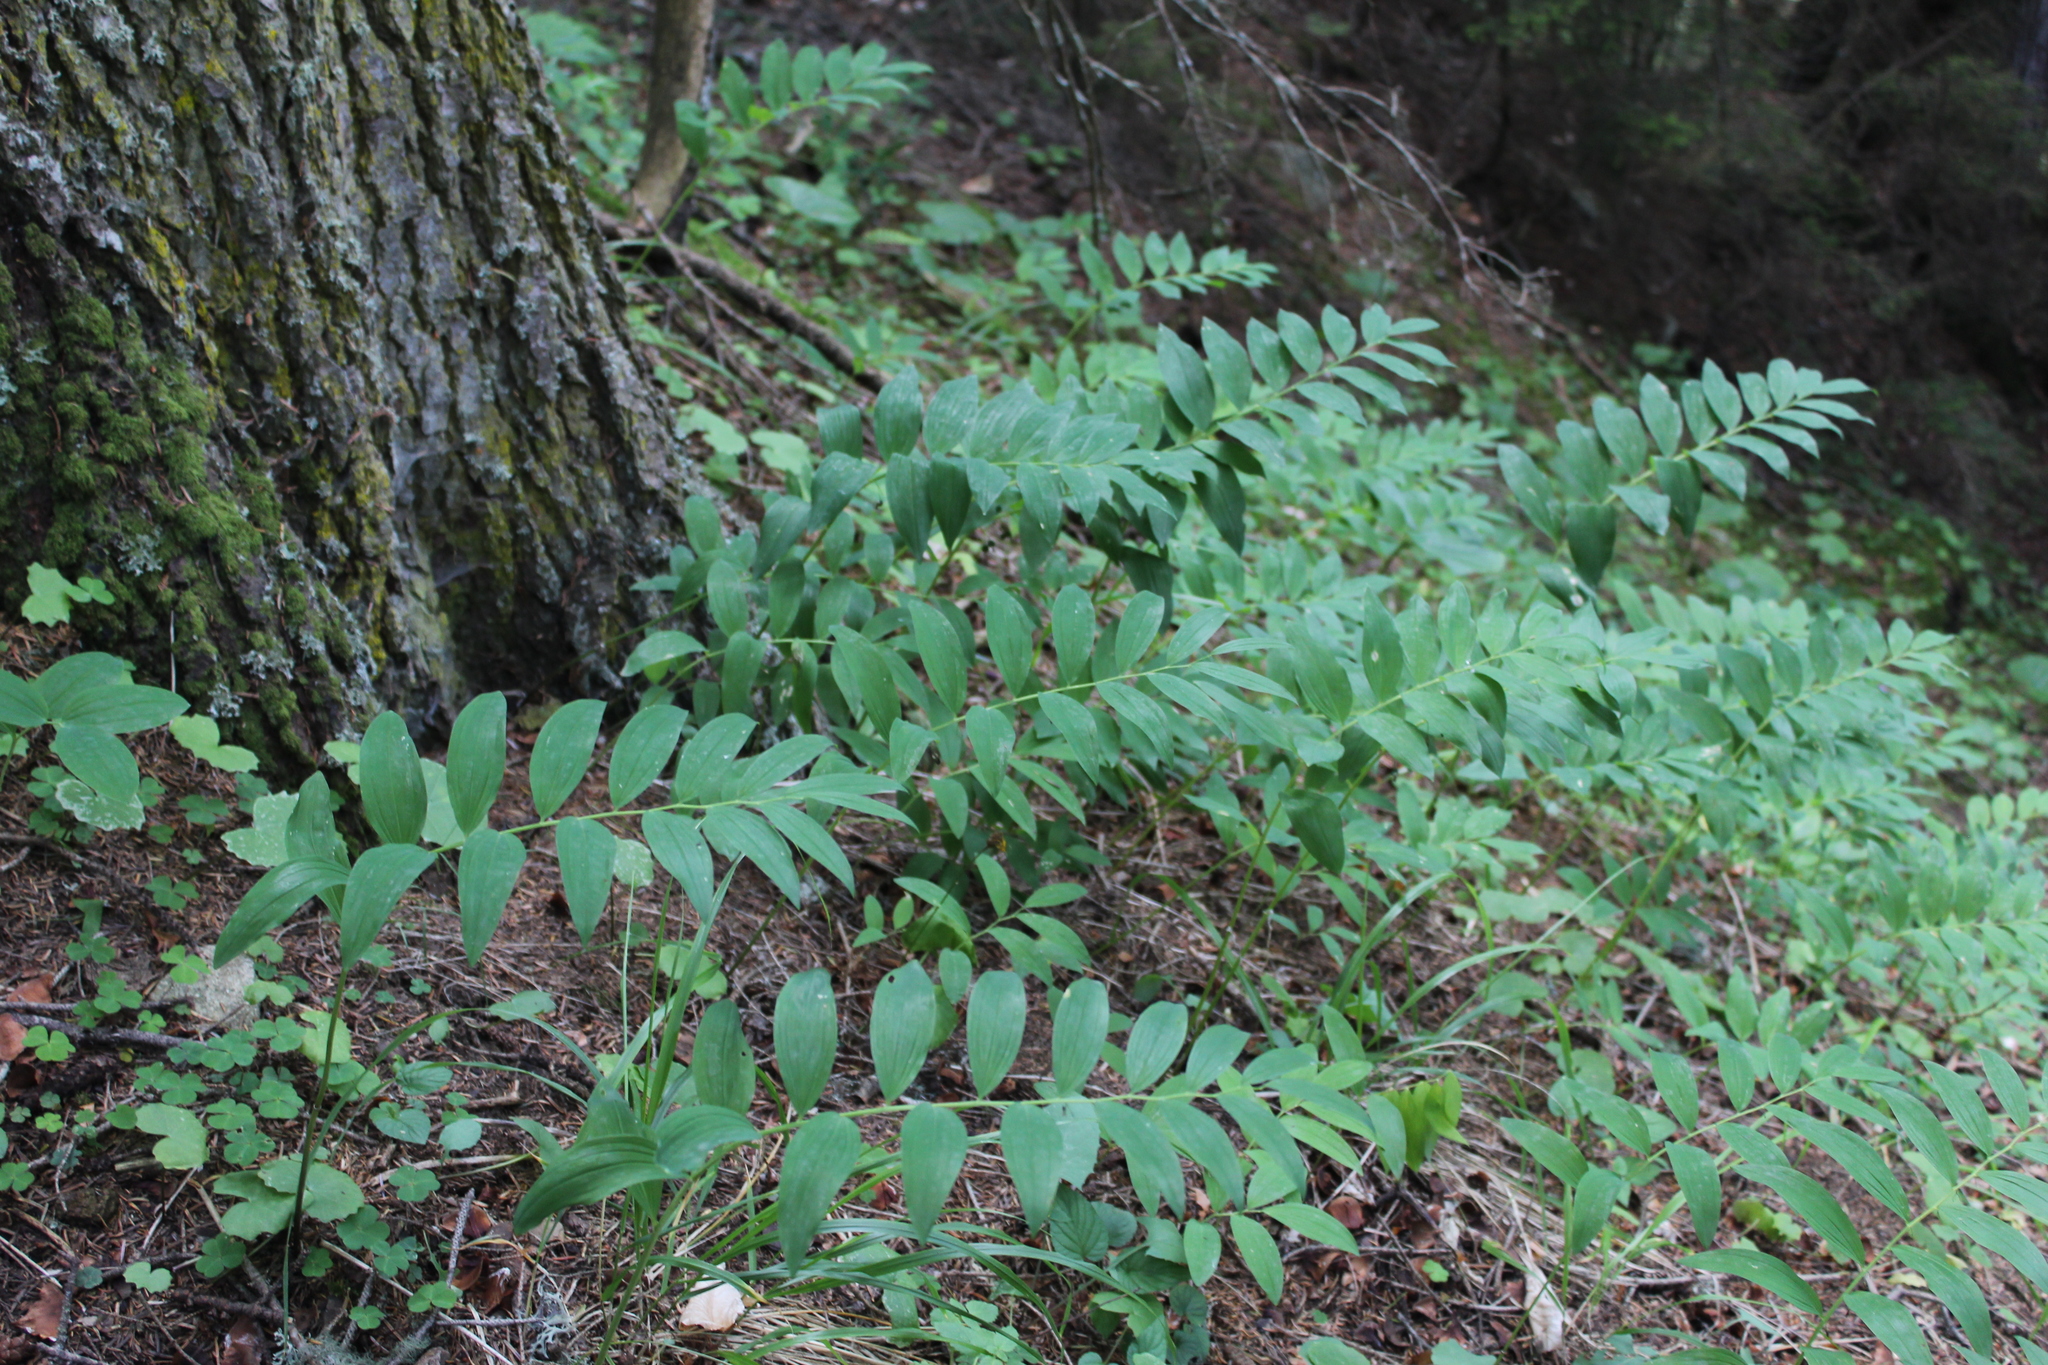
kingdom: Plantae
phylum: Tracheophyta
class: Liliopsida
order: Asparagales
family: Asparagaceae
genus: Polygonatum
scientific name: Polygonatum orientale
